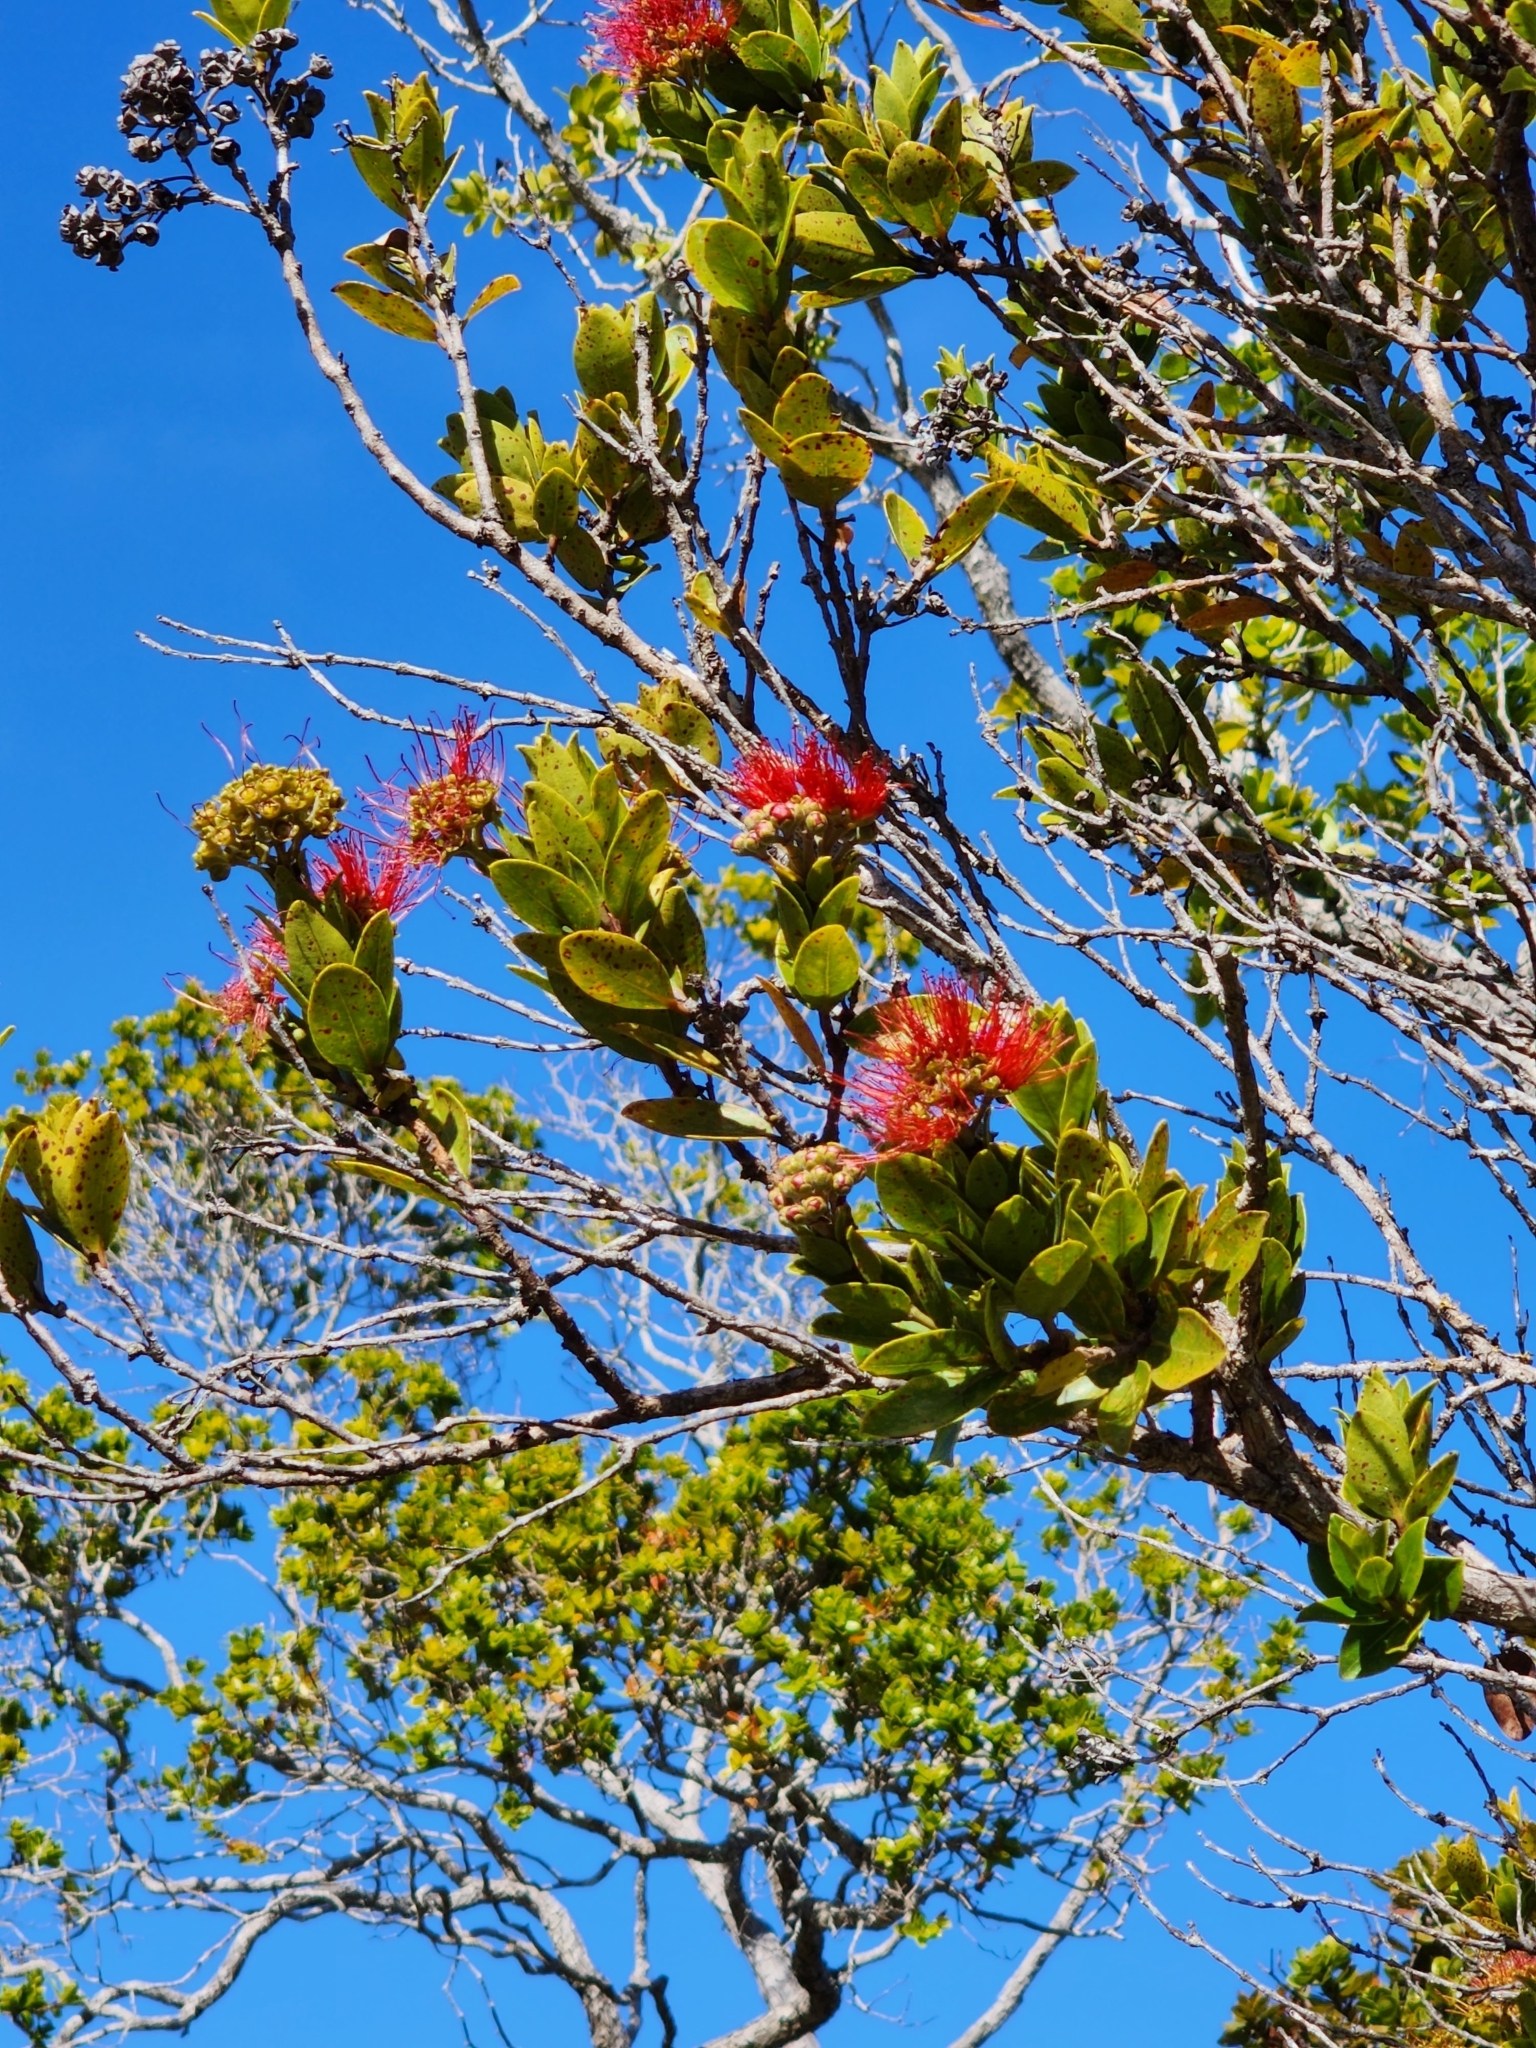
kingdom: Plantae
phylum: Tracheophyta
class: Magnoliopsida
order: Myrtales
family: Myrtaceae
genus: Metrosideros
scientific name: Metrosideros polymorpha
